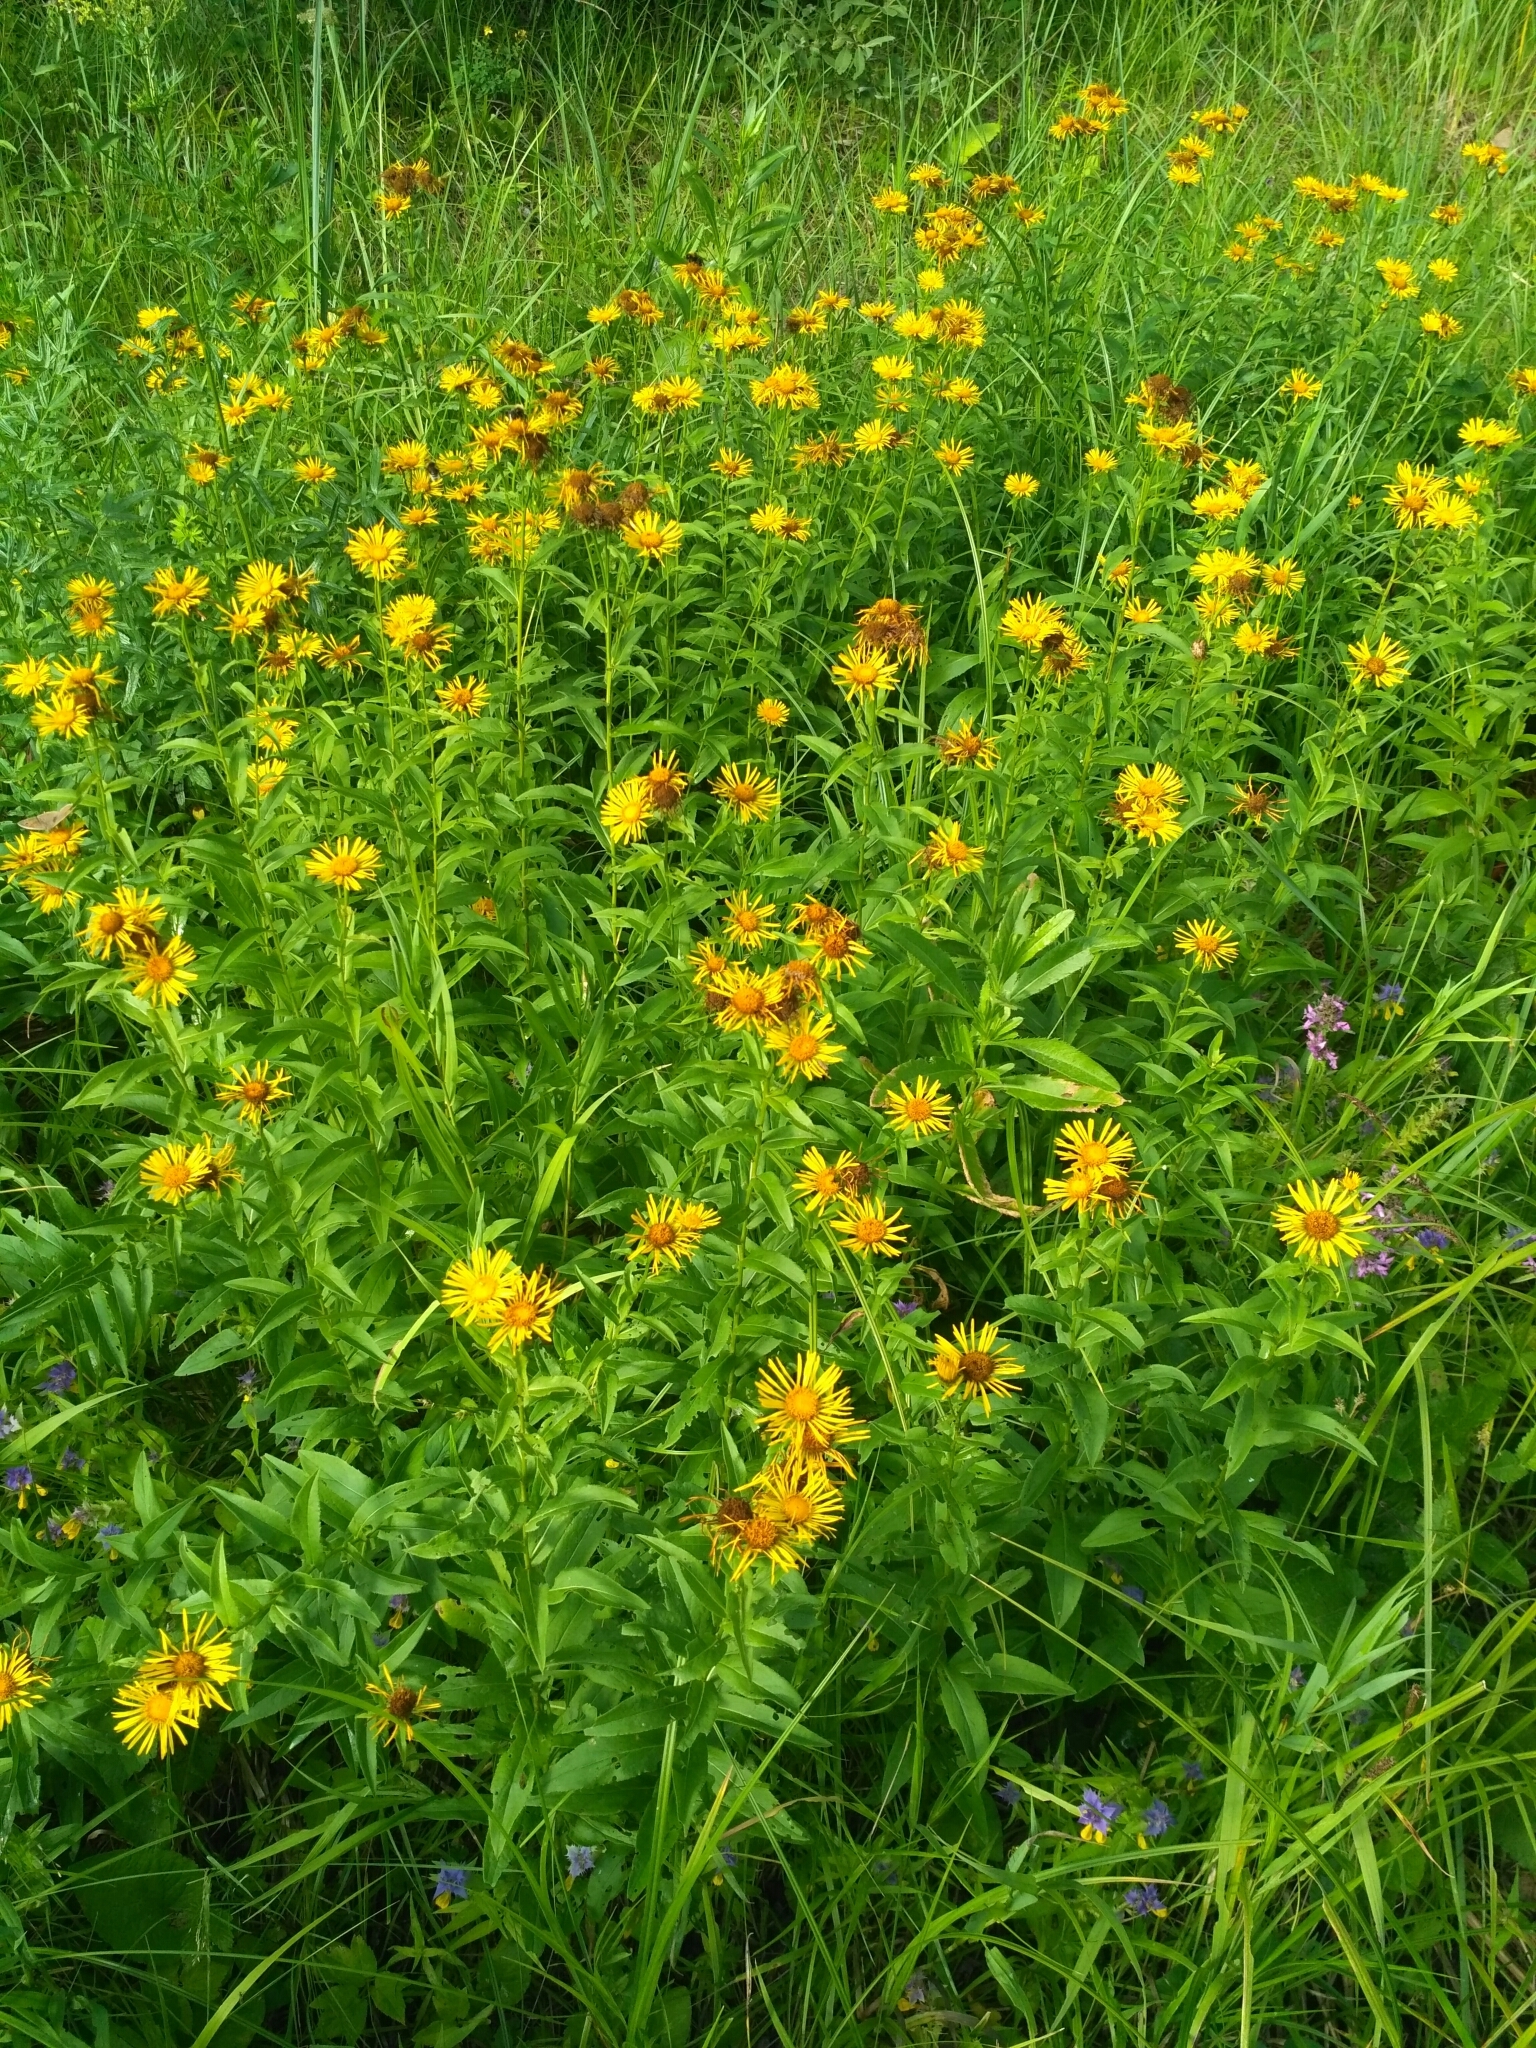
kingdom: Plantae
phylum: Tracheophyta
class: Magnoliopsida
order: Asterales
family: Asteraceae
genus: Pentanema
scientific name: Pentanema salicinum
